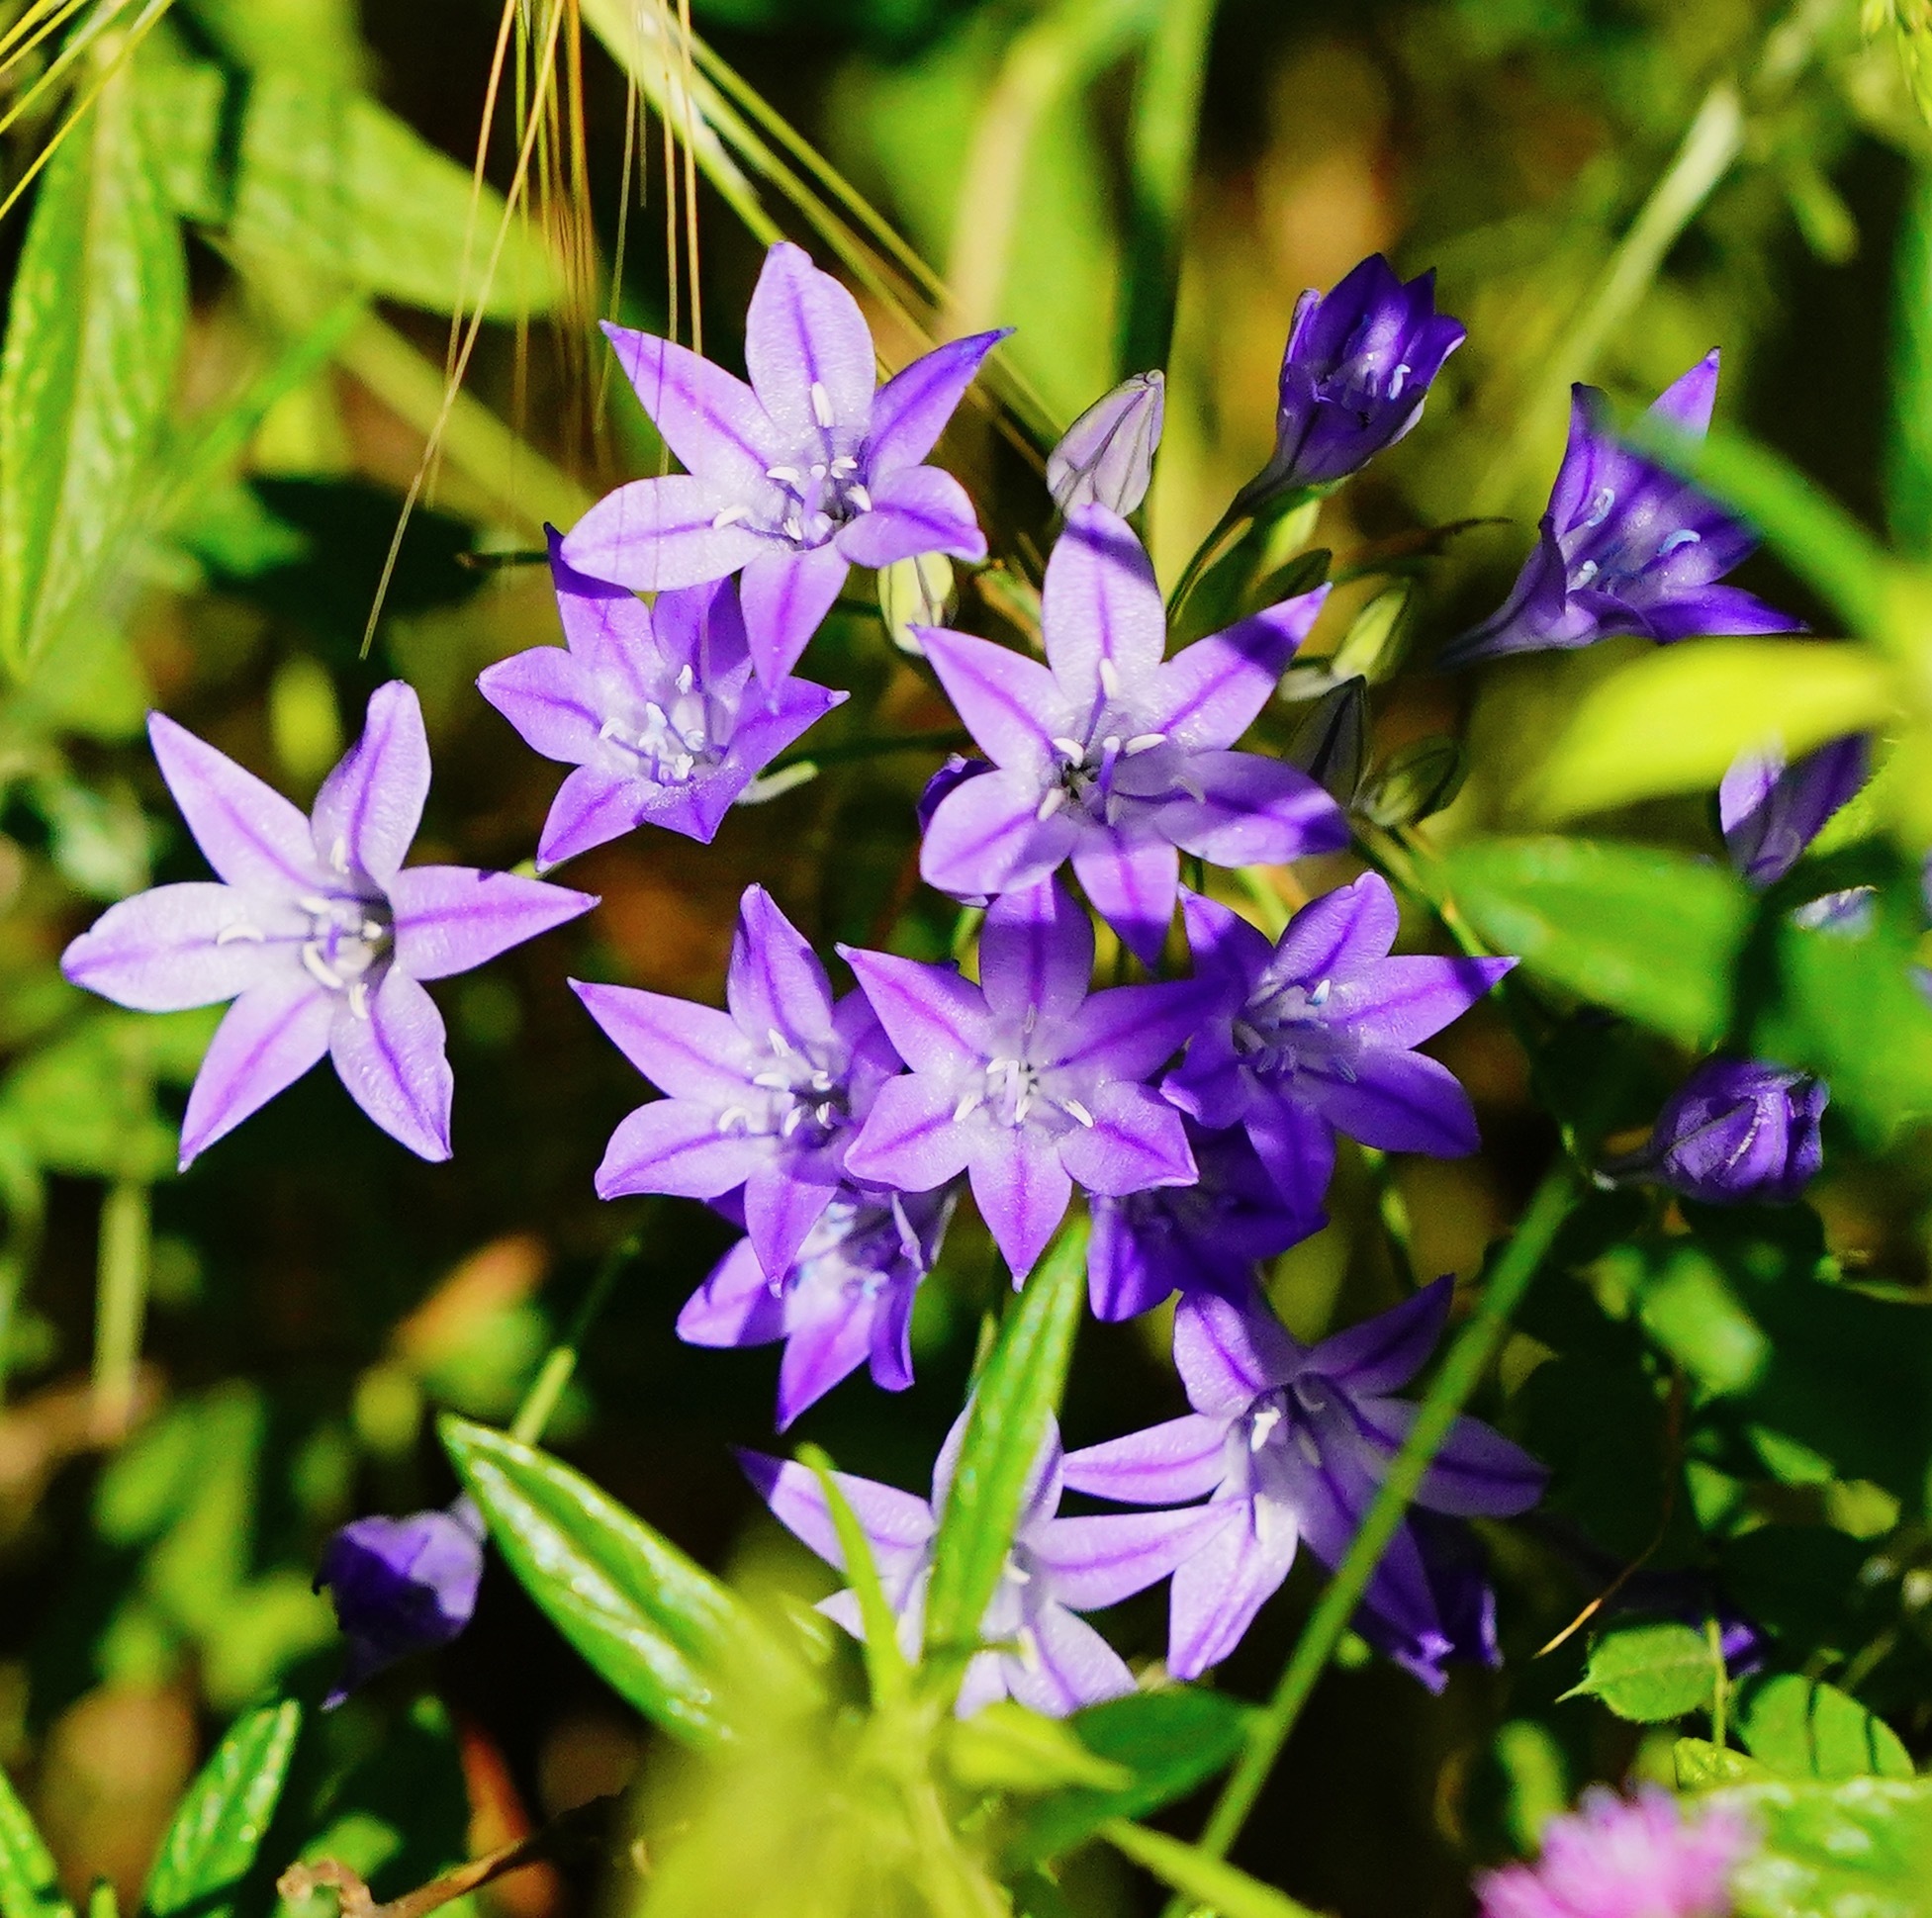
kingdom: Plantae
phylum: Tracheophyta
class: Liliopsida
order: Asparagales
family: Asparagaceae
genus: Triteleia
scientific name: Triteleia laxa
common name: Triplet-lily
